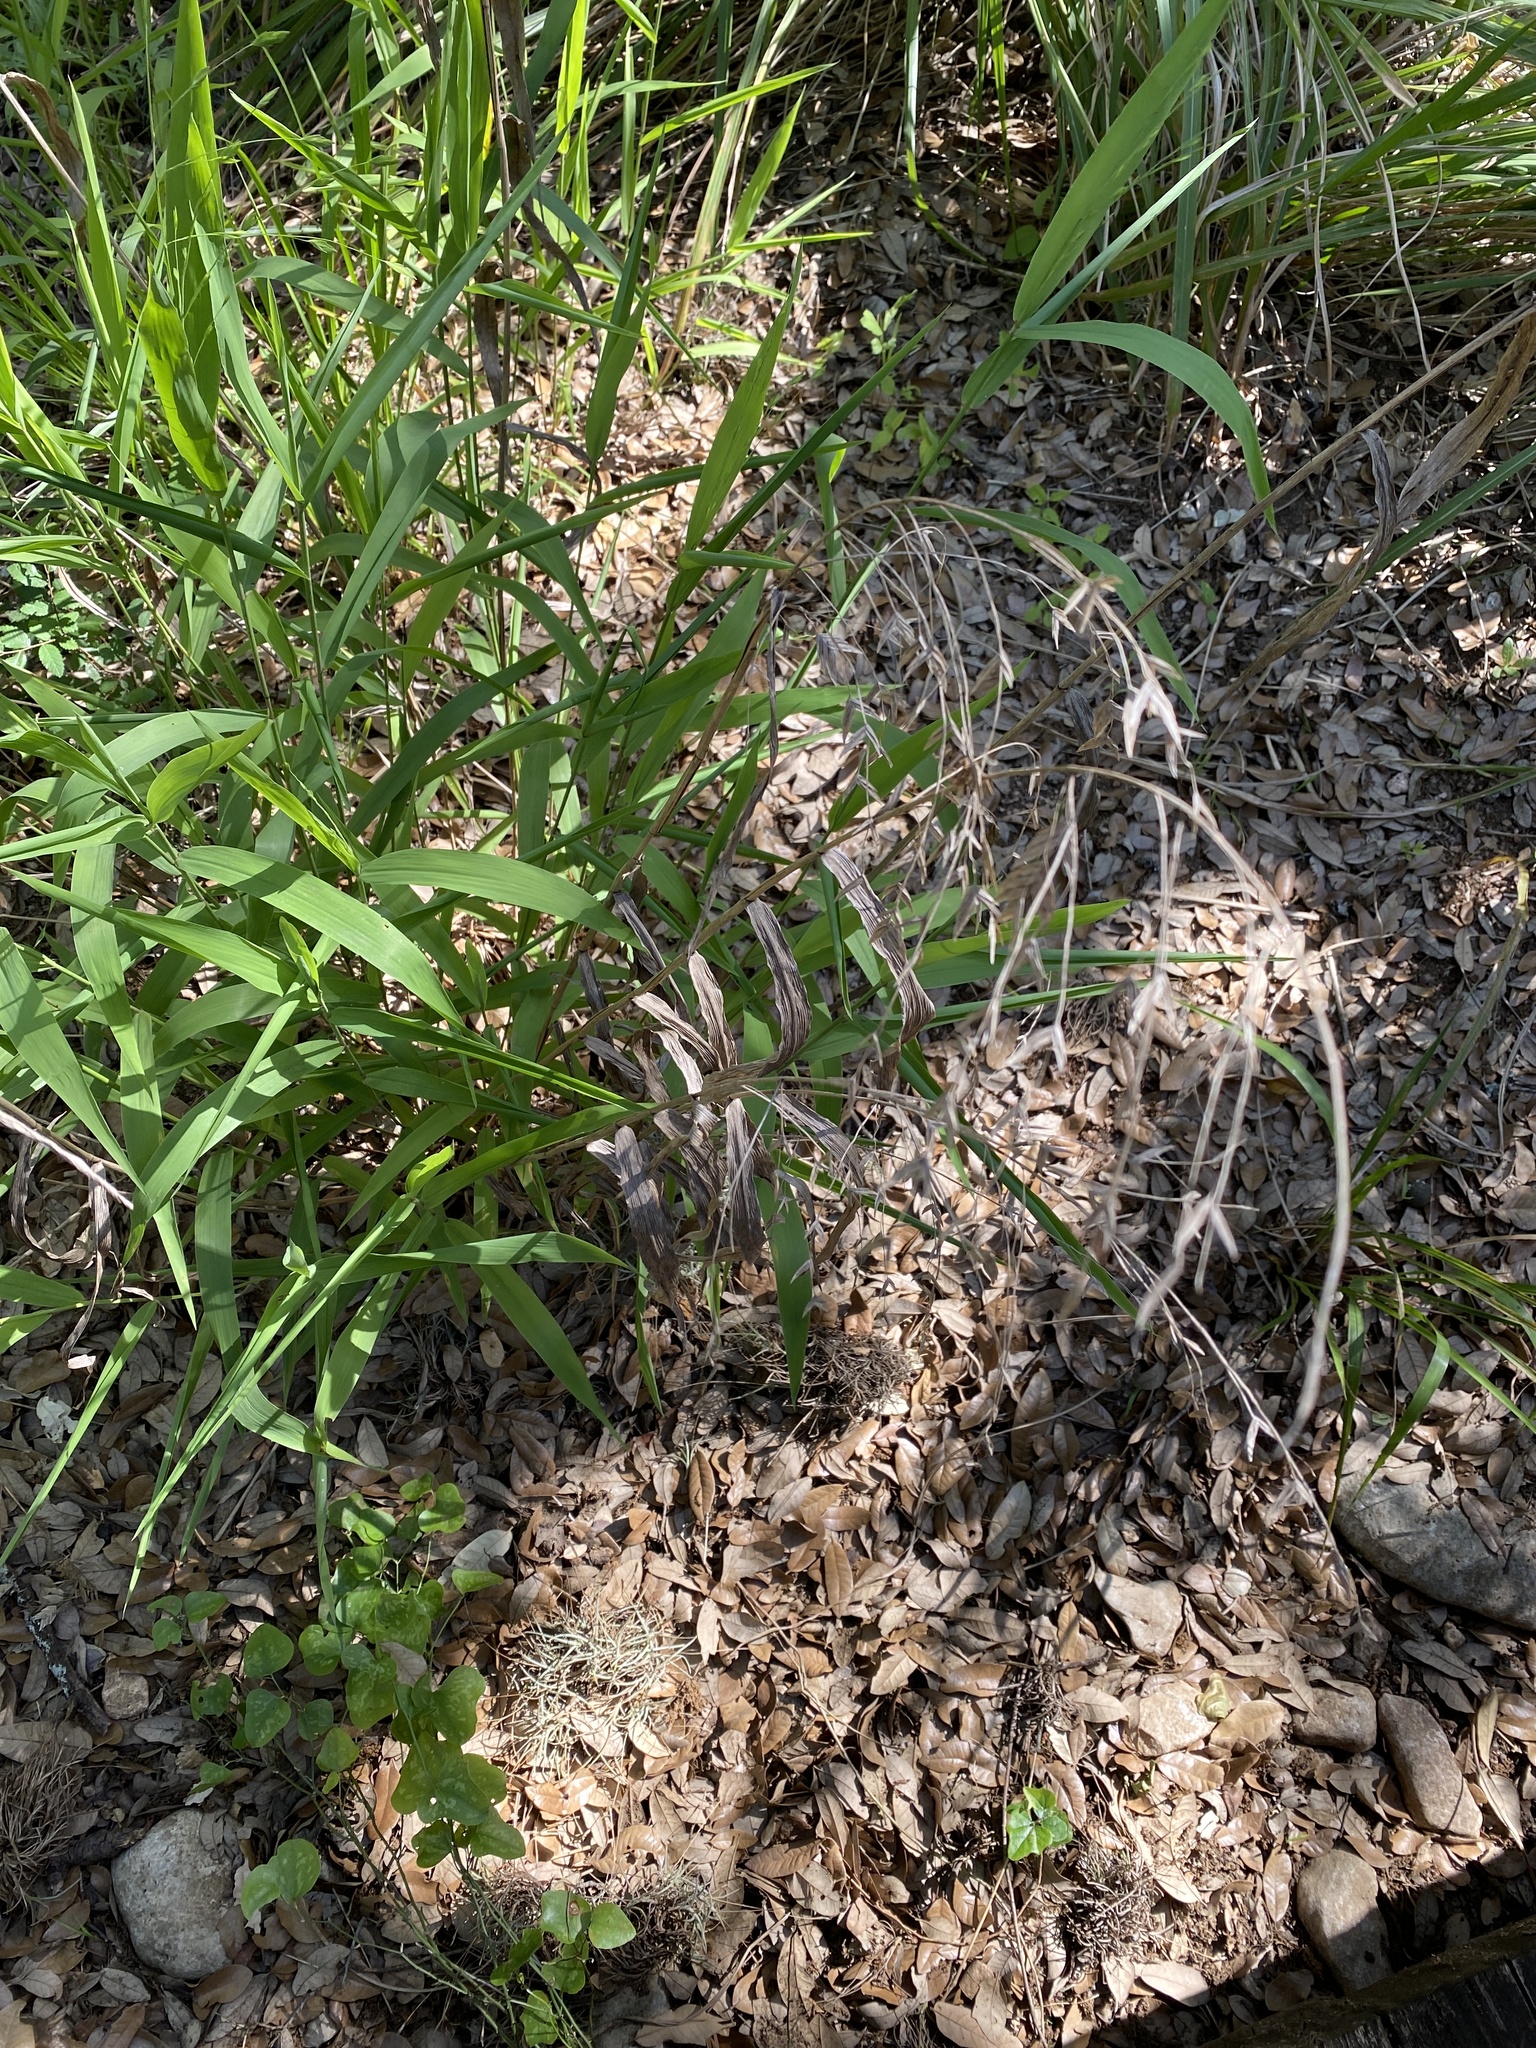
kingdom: Plantae
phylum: Tracheophyta
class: Liliopsida
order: Poales
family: Poaceae
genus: Chasmanthium
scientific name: Chasmanthium latifolium
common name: Broad-leaved chasmanthium
